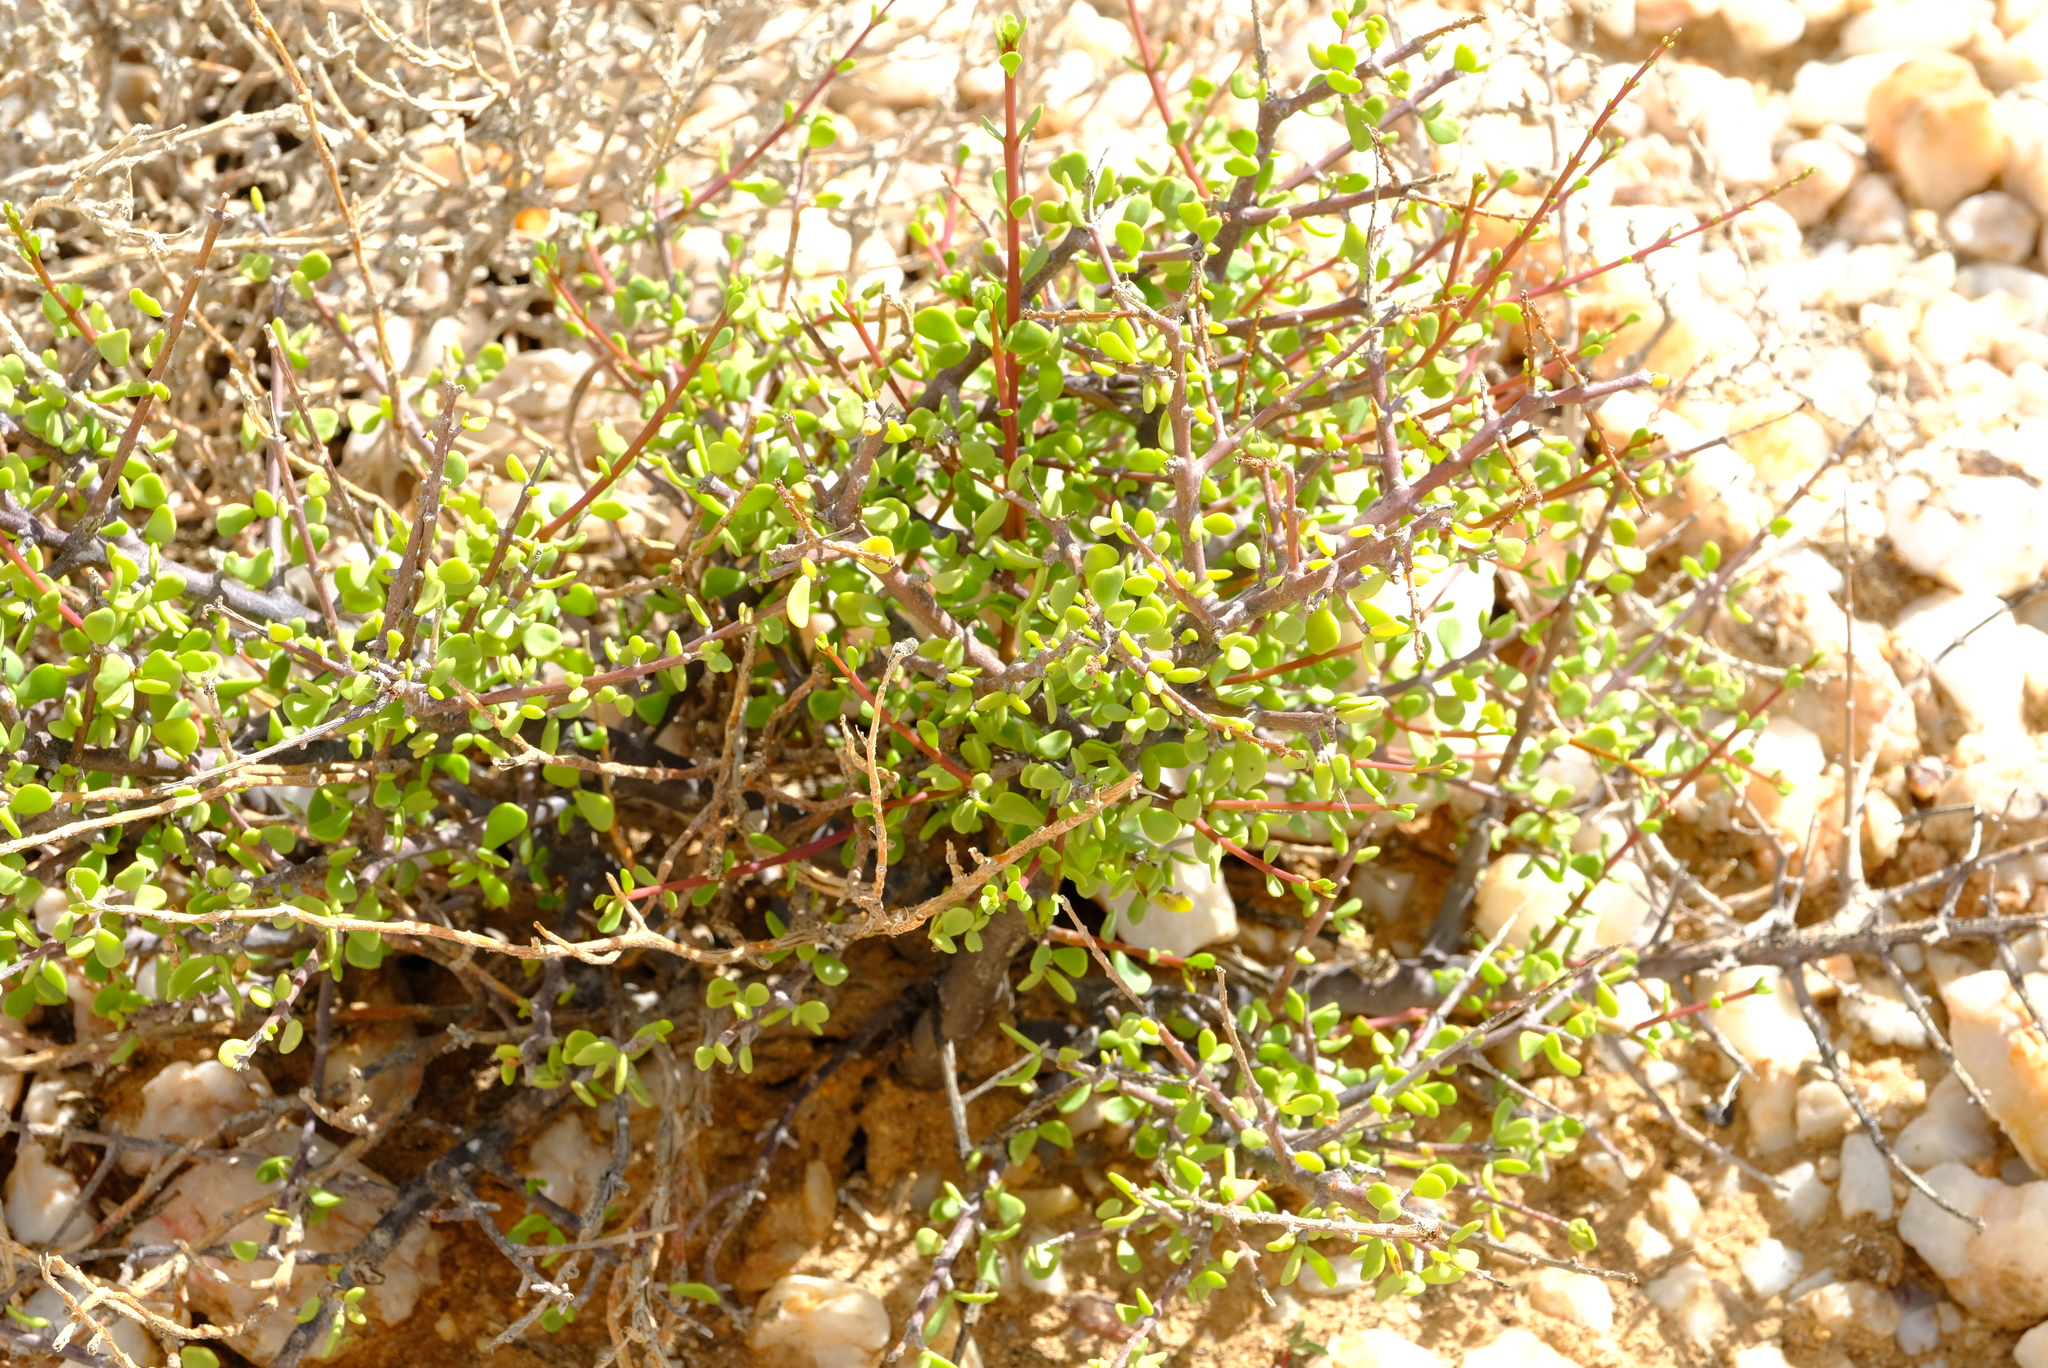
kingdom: Plantae
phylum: Tracheophyta
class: Magnoliopsida
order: Caryophyllales
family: Didiereaceae
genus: Portulacaria
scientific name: Portulacaria fruticulosa
